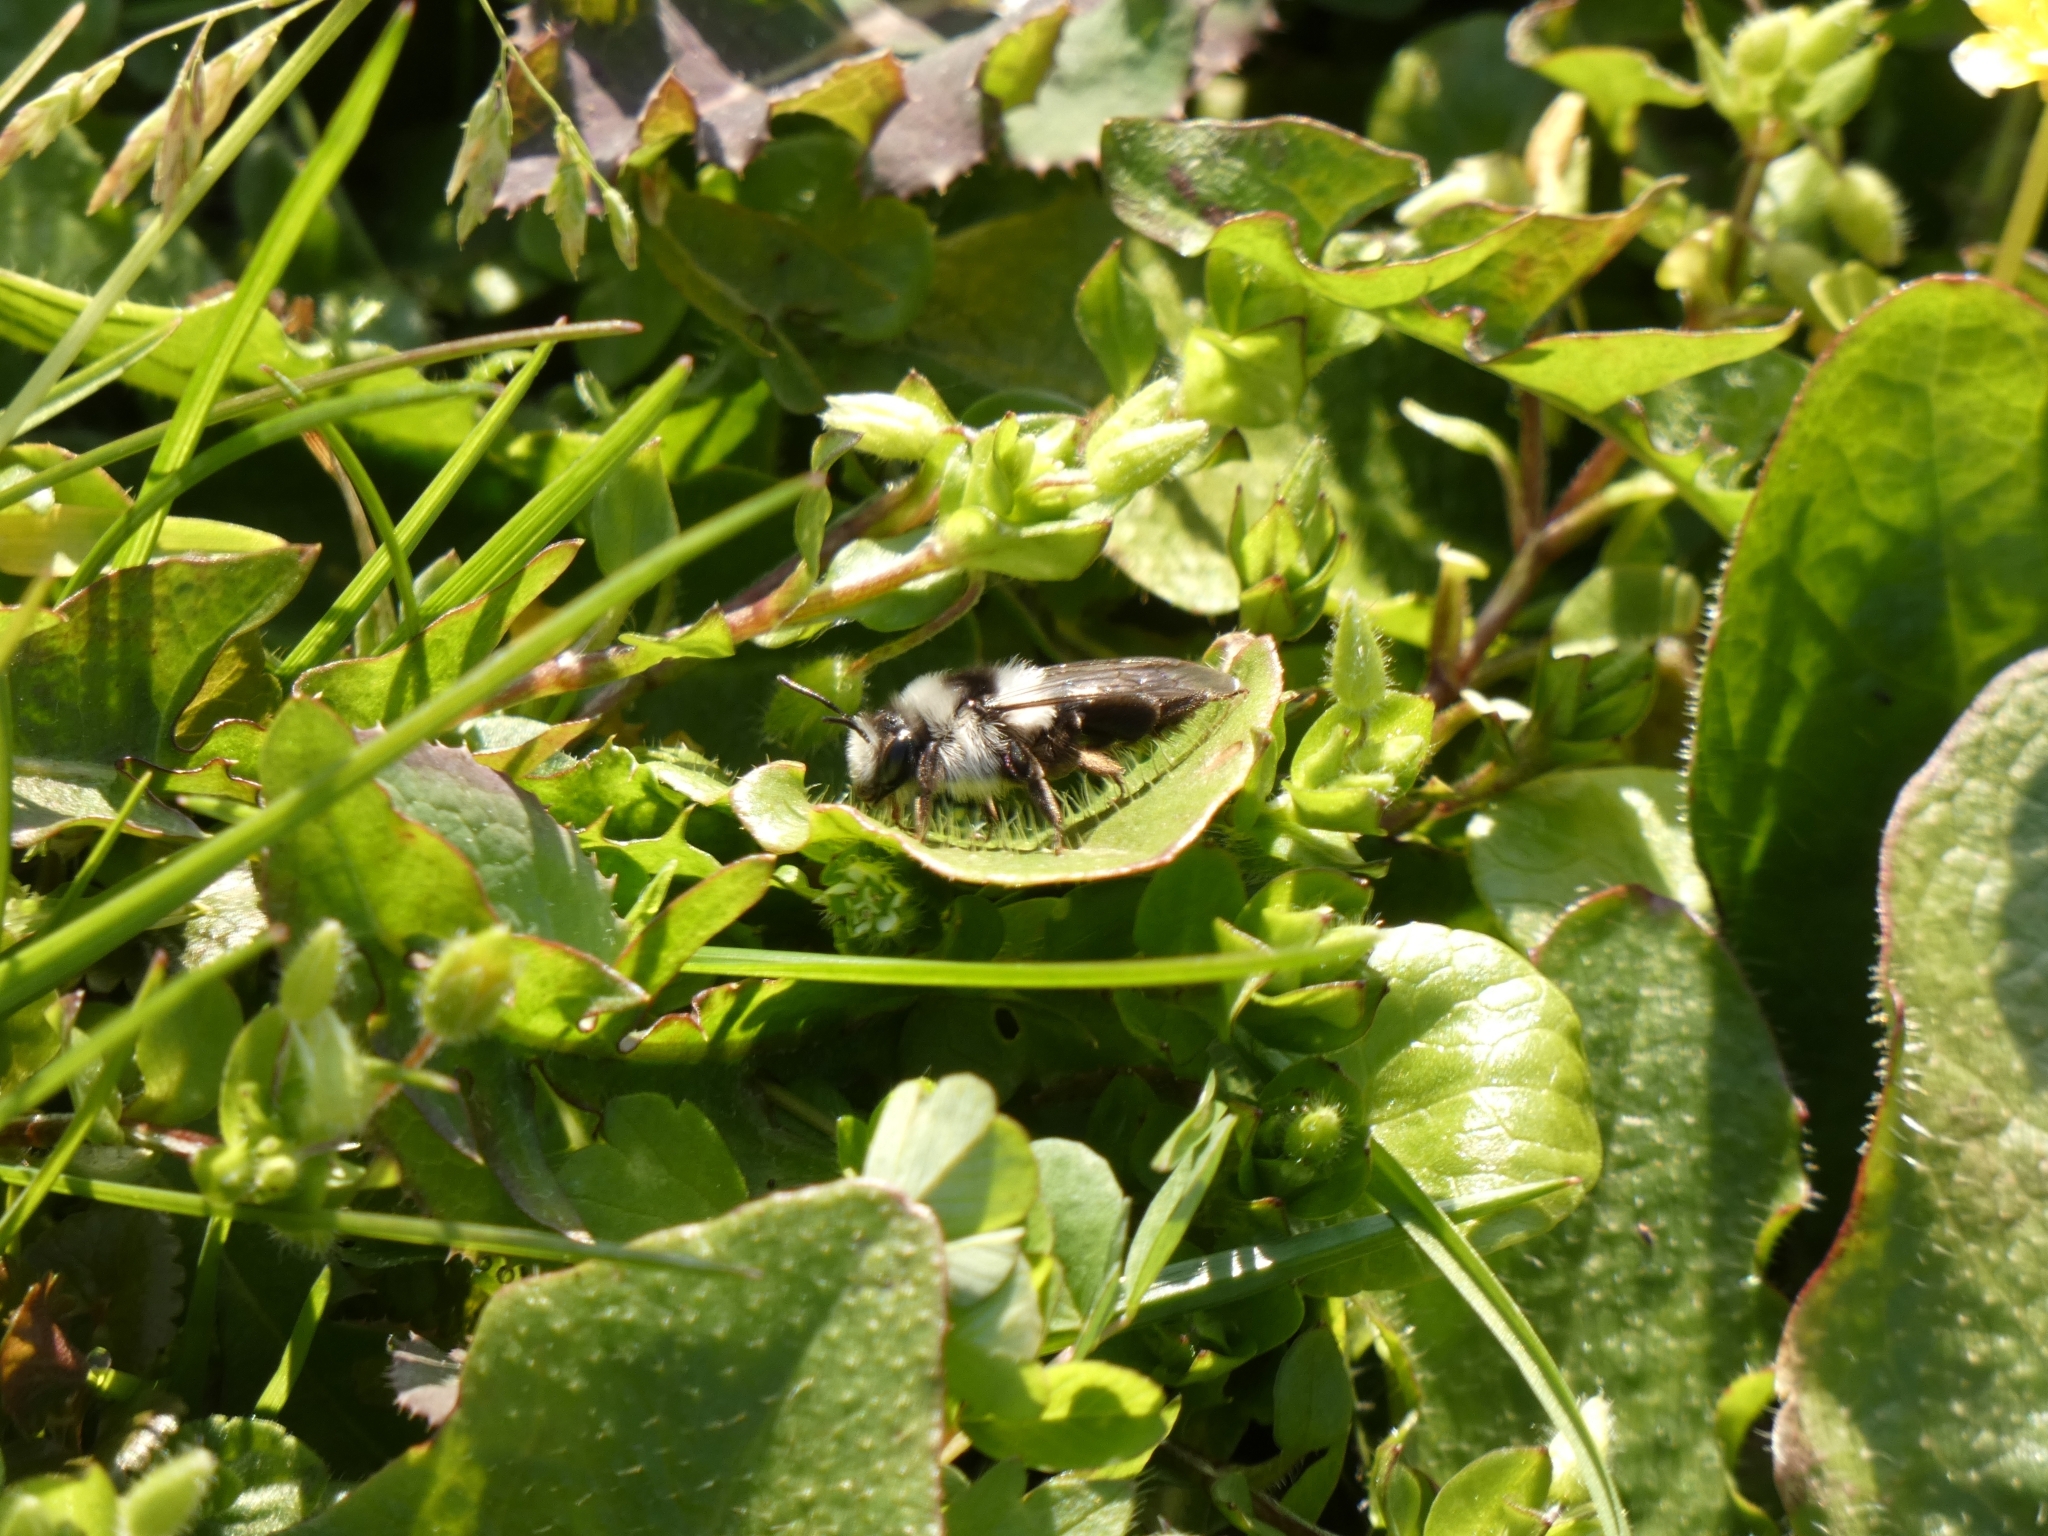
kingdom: Animalia
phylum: Arthropoda
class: Insecta
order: Hymenoptera
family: Andrenidae
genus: Andrena
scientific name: Andrena cineraria
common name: Ashy mining bee
